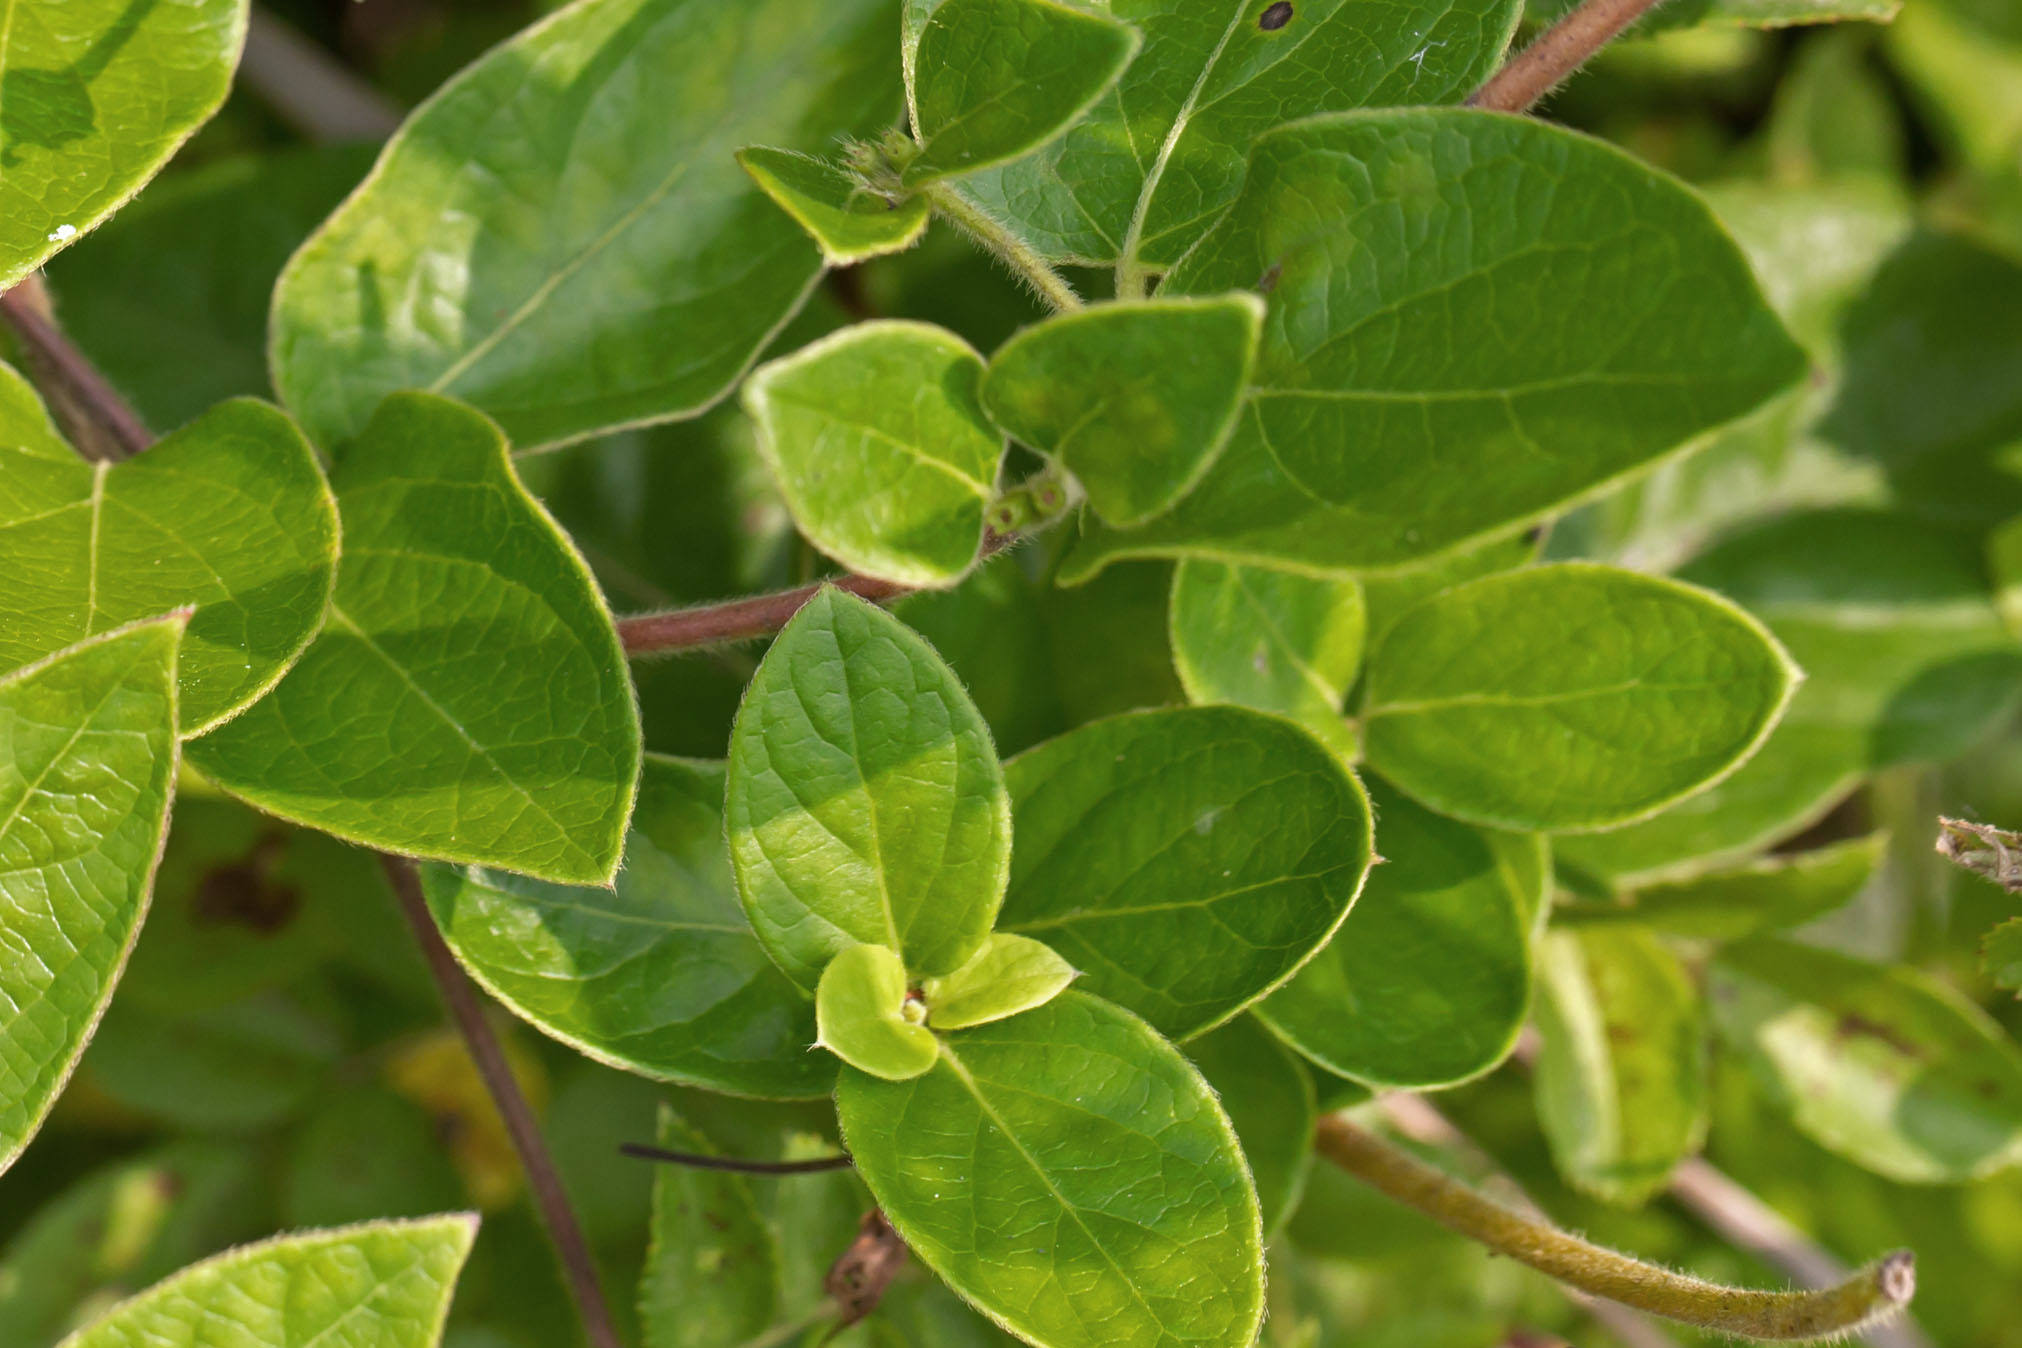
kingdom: Plantae
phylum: Tracheophyta
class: Magnoliopsida
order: Dipsacales
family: Caprifoliaceae
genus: Lonicera
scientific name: Lonicera japonica
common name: Japanese honeysuckle
